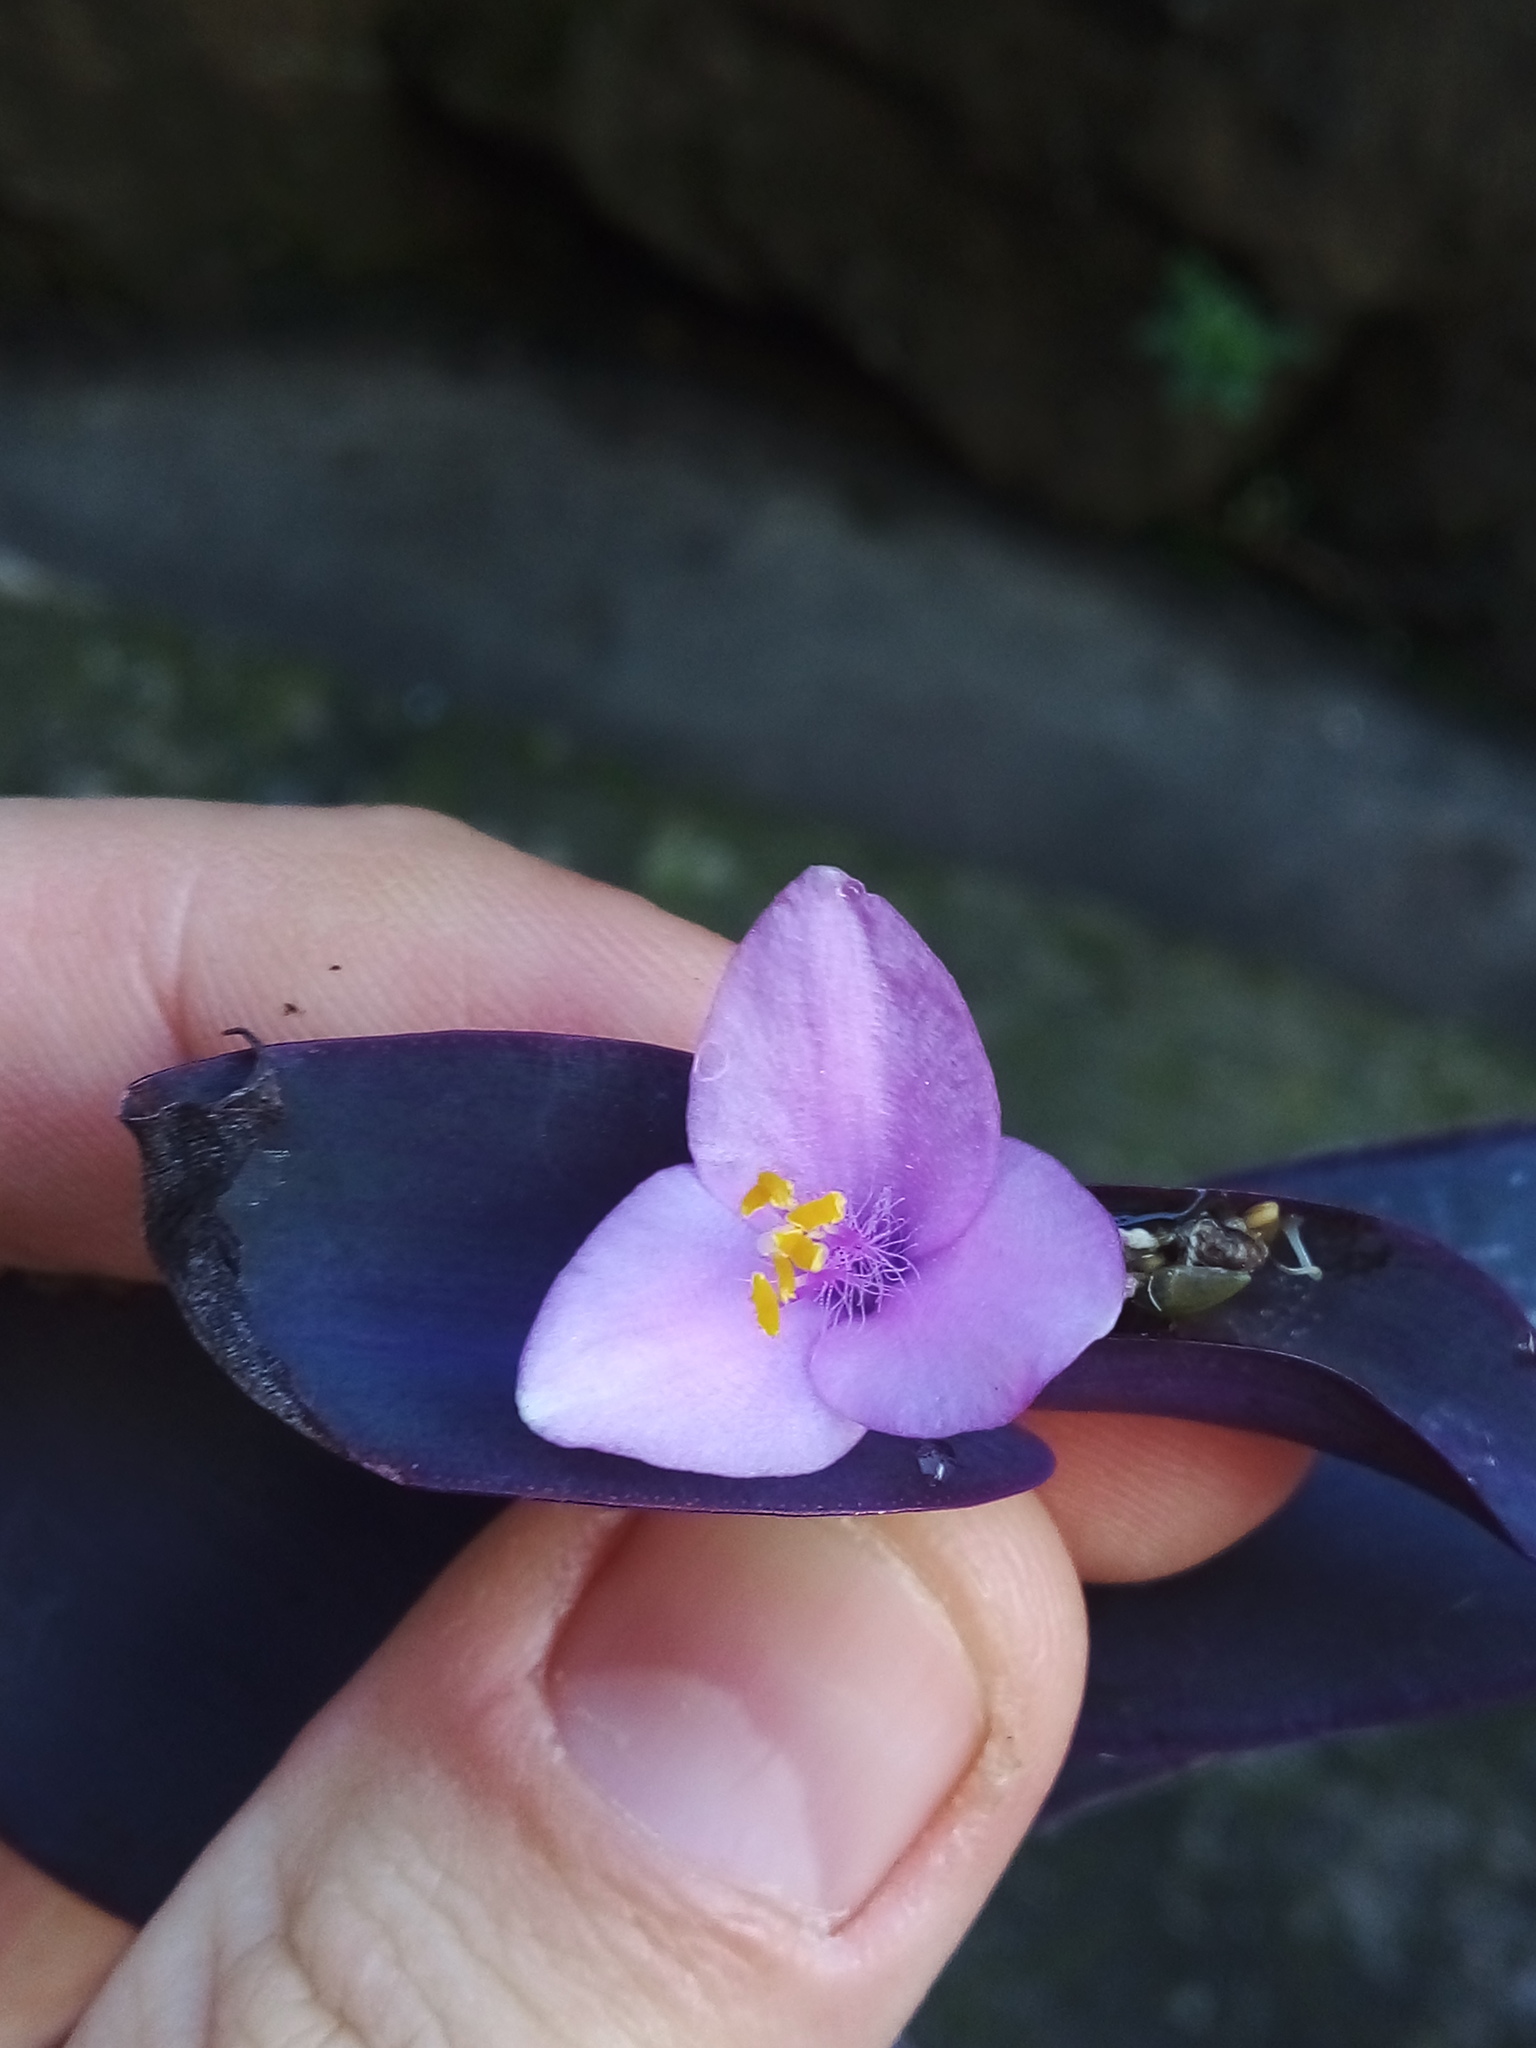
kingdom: Plantae
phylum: Tracheophyta
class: Liliopsida
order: Commelinales
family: Commelinaceae
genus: Tradescantia
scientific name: Tradescantia pallida
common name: Purpleheart
